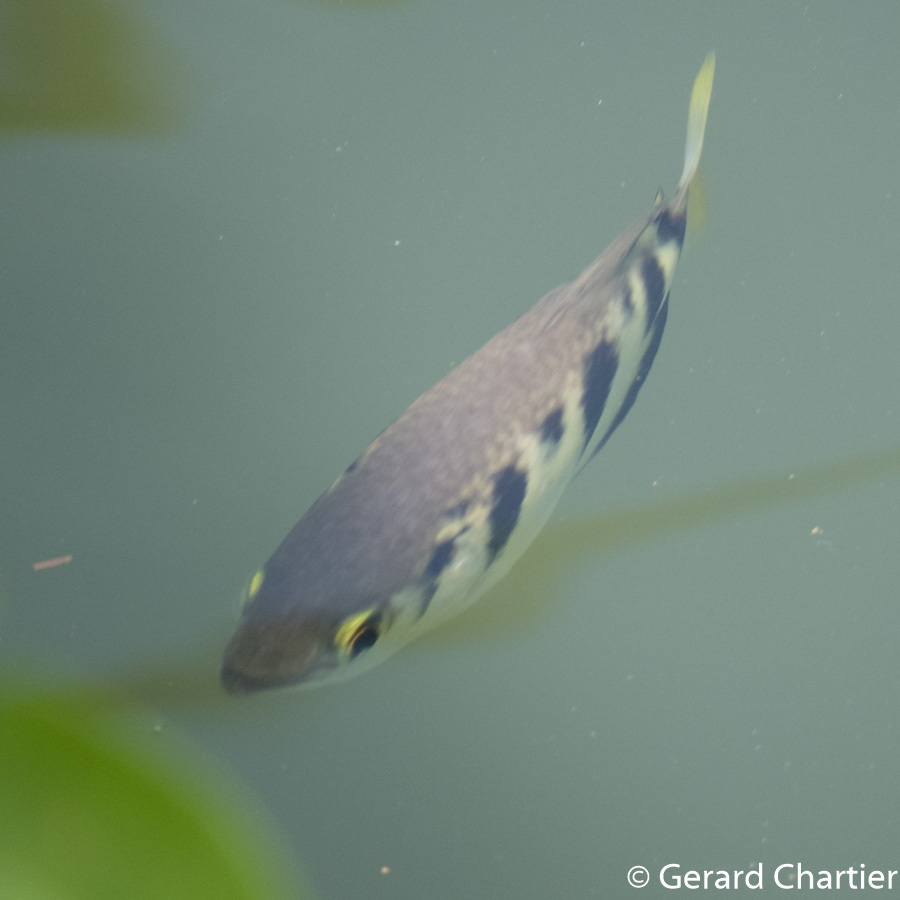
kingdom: Animalia
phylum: Chordata
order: Perciformes
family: Toxotidae
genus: Toxotes
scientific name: Toxotes chatareus
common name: Spotted archerfish
